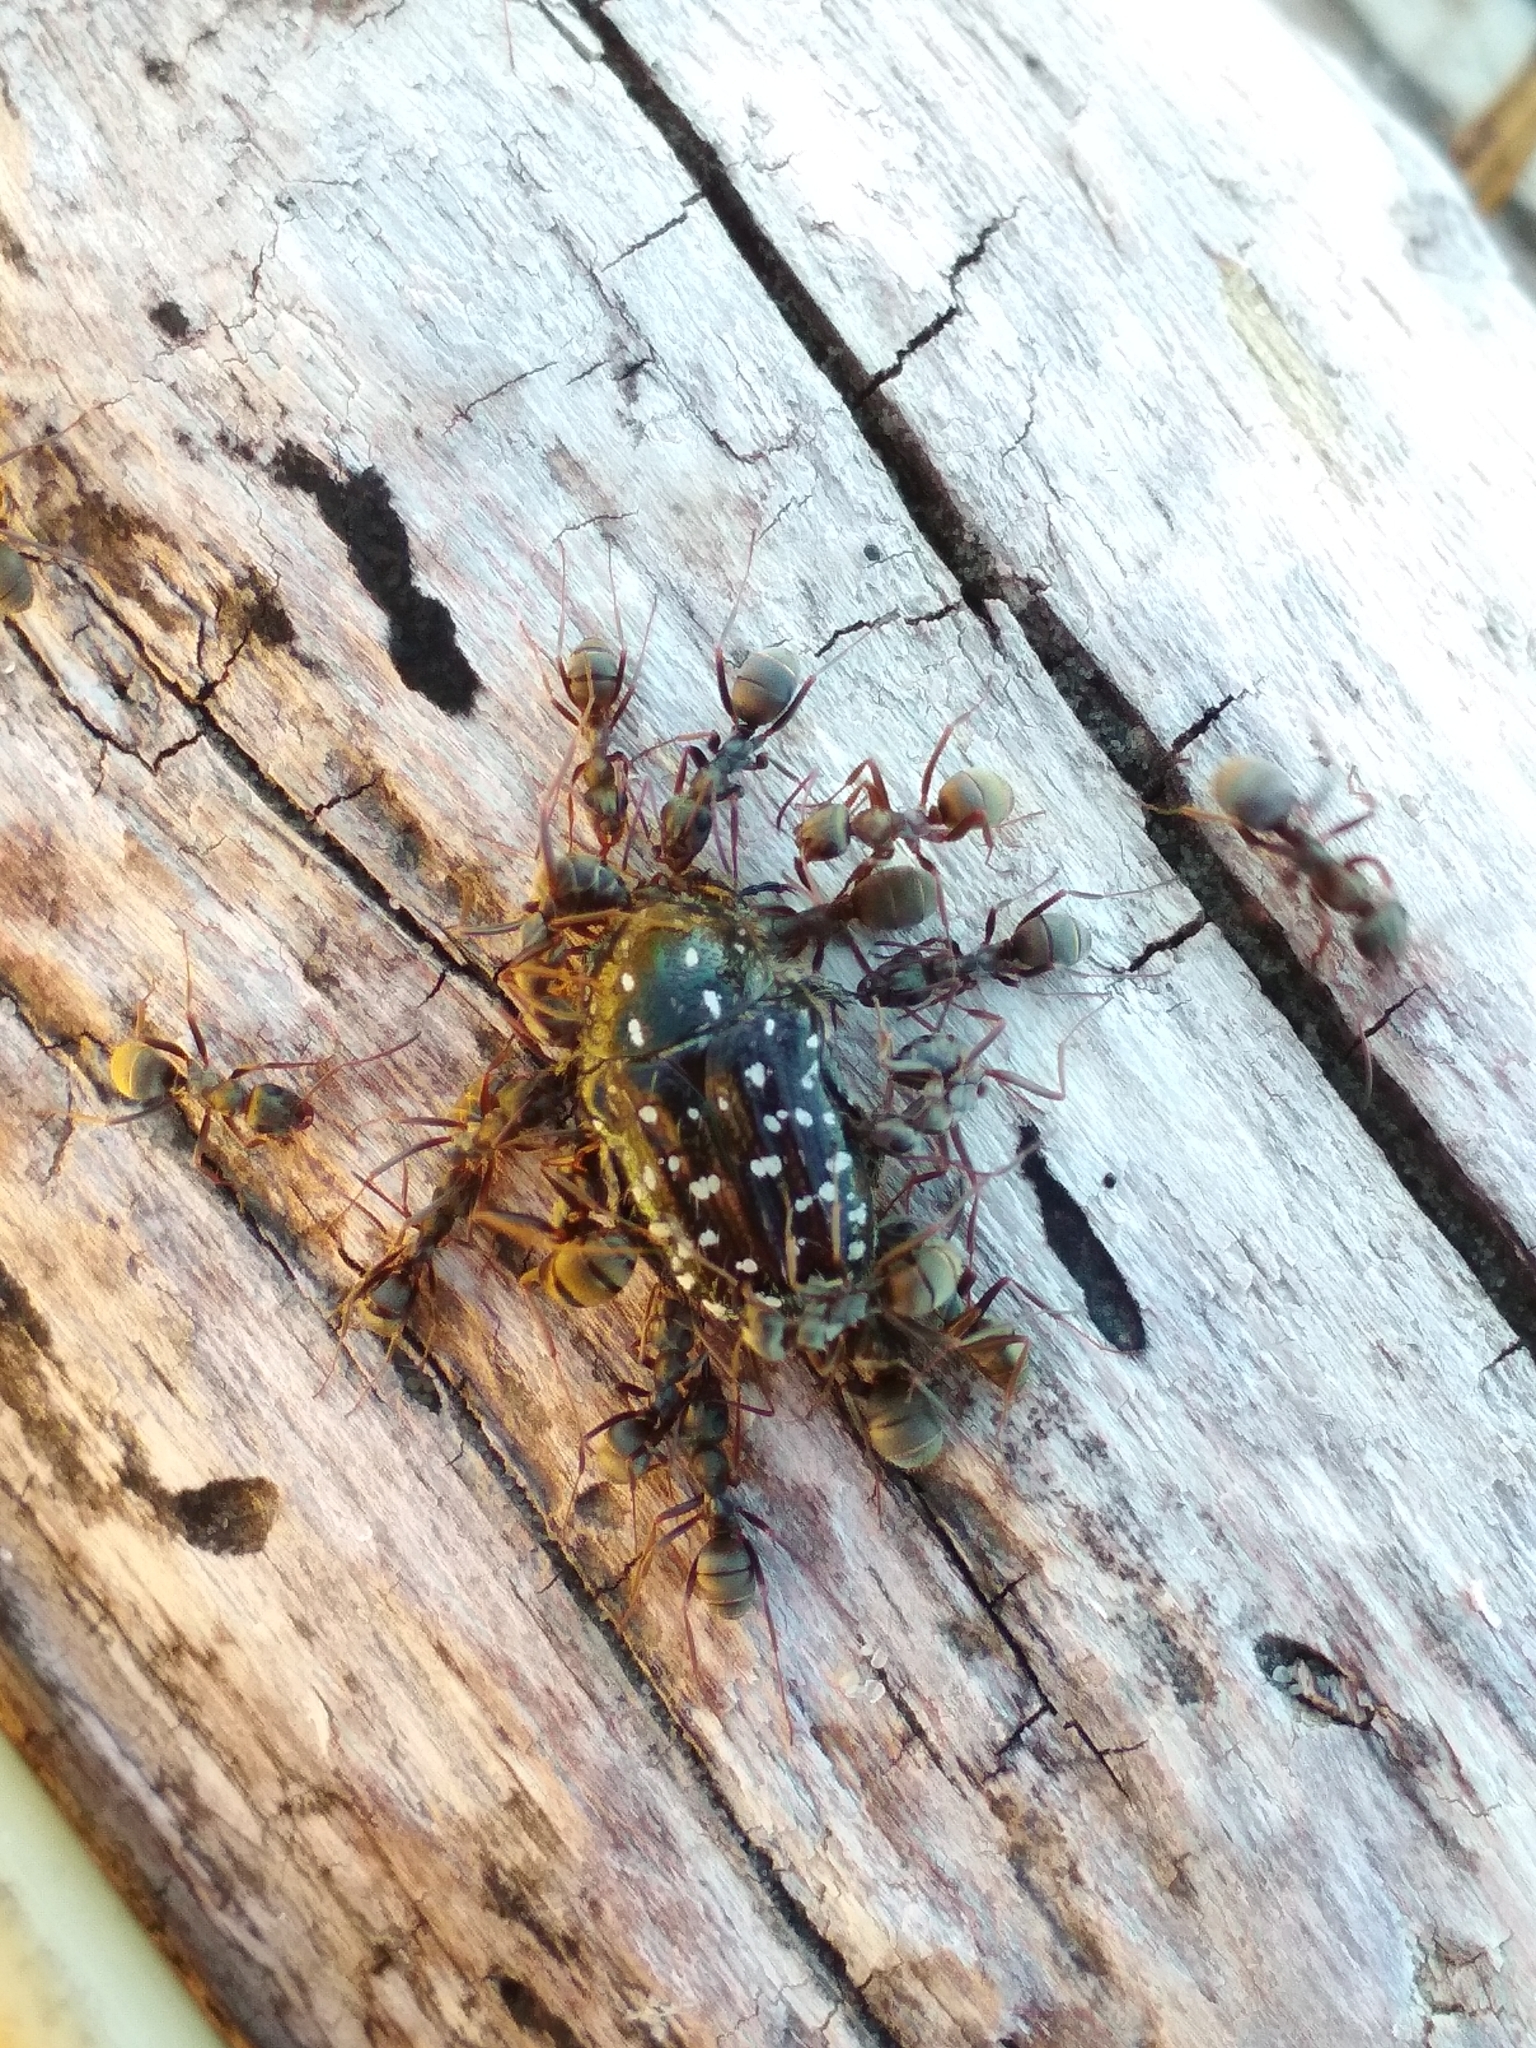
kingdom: Animalia
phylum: Arthropoda
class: Insecta
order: Coleoptera
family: Scarabaeidae
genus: Oxythyrea
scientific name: Oxythyrea funesta
